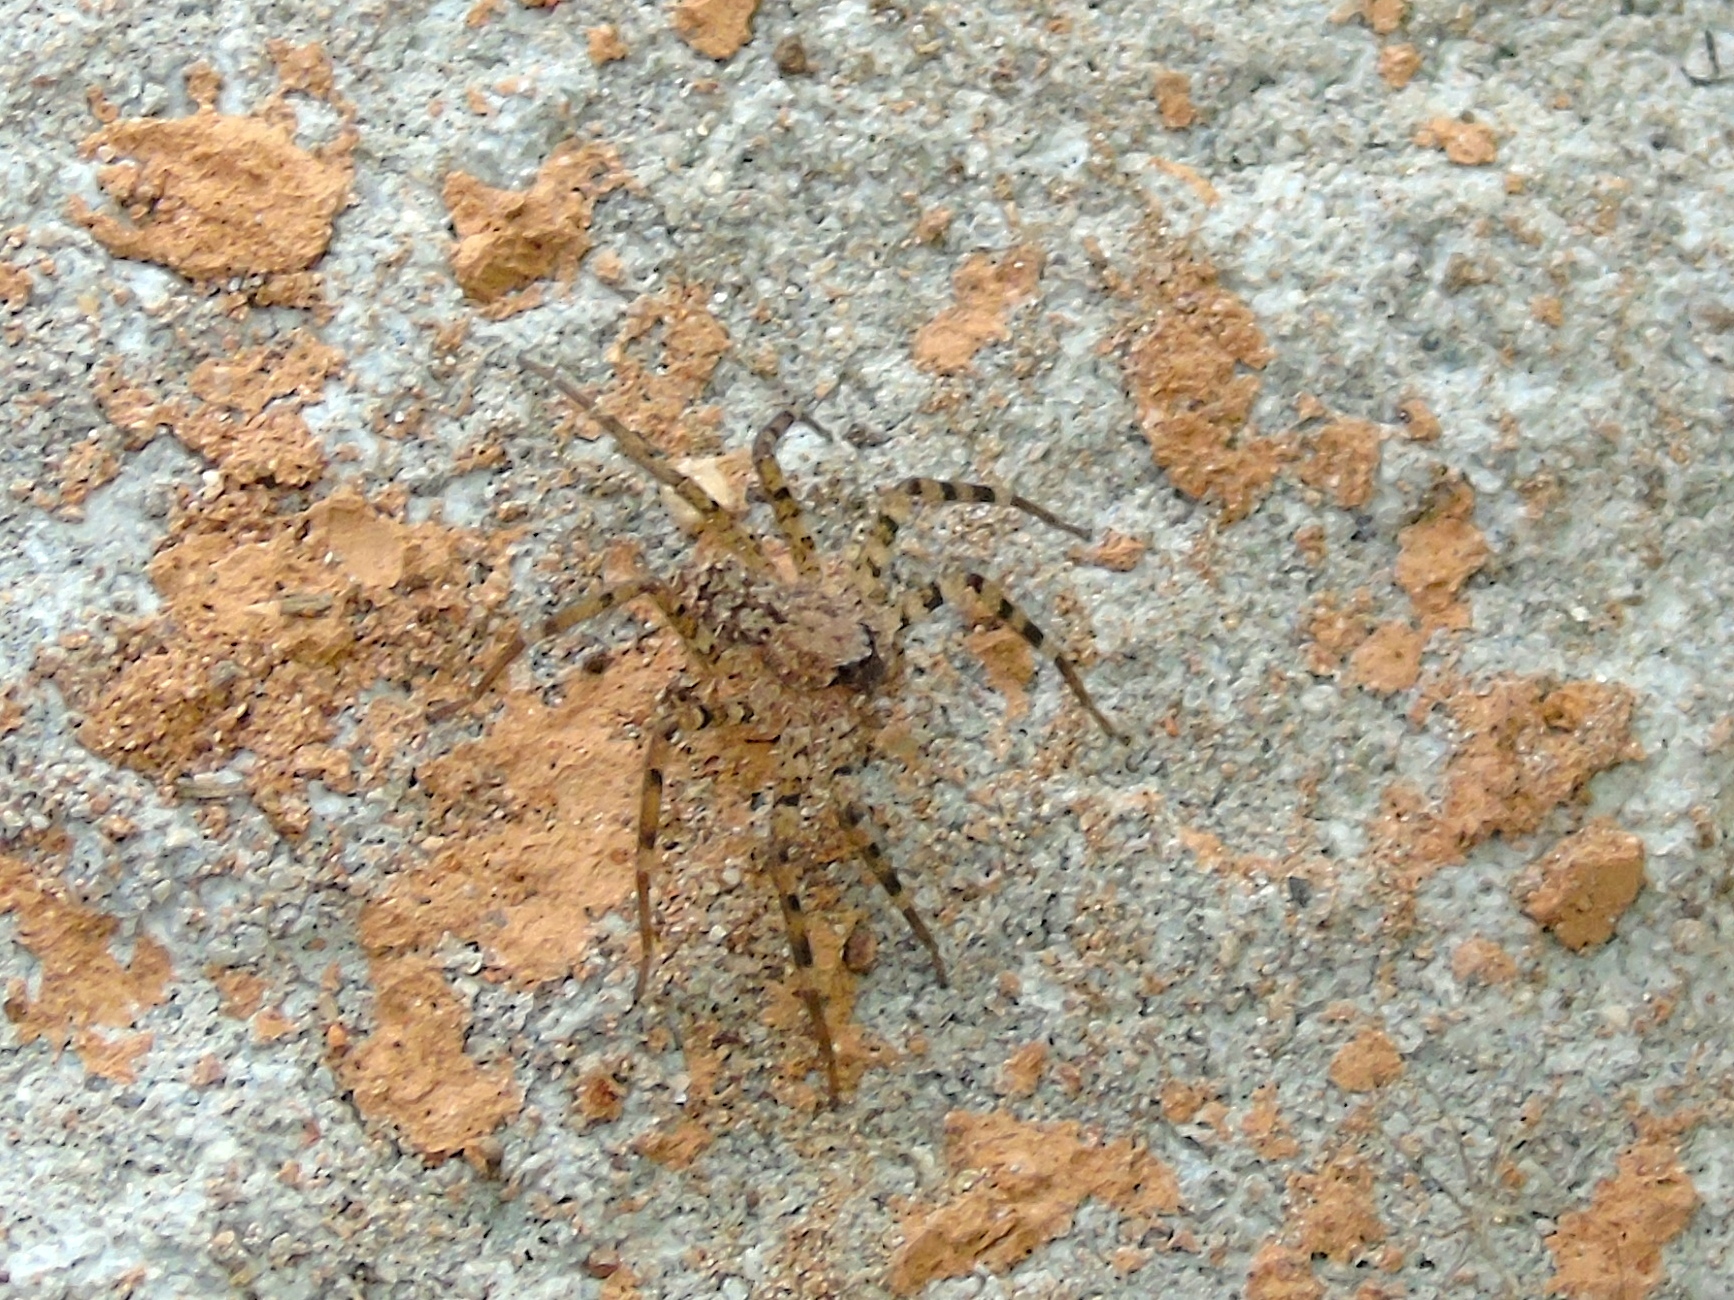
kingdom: Animalia
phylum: Arthropoda
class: Arachnida
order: Araneae
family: Selenopidae
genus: Selenops
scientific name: Selenops
